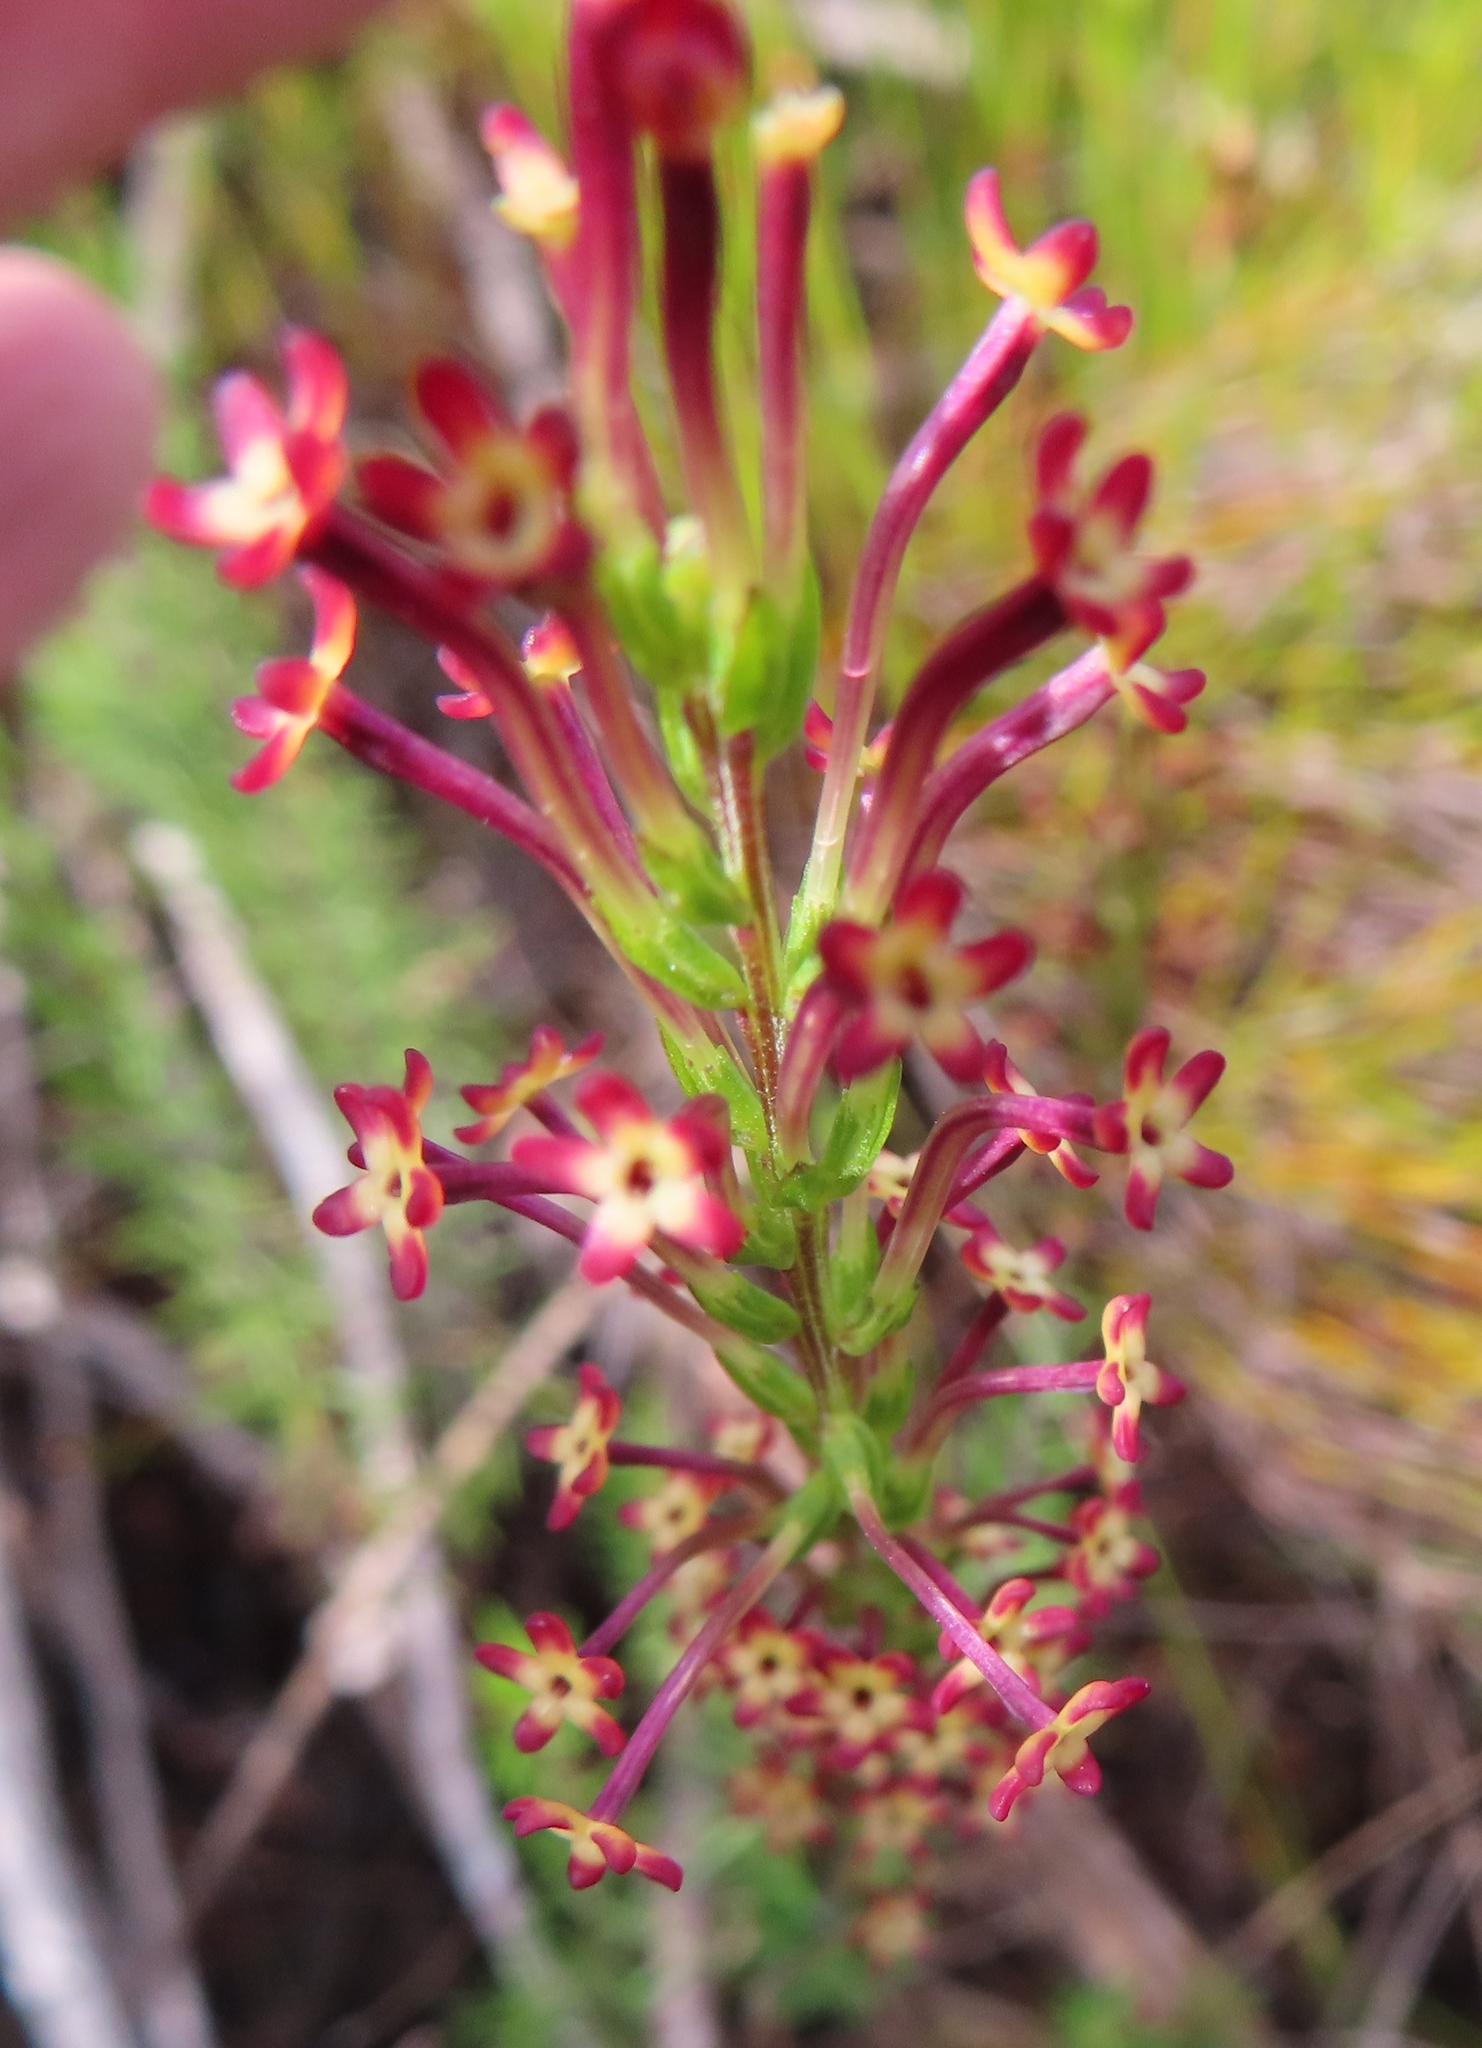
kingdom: Plantae
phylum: Tracheophyta
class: Magnoliopsida
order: Lamiales
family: Scrophulariaceae
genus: Microdon
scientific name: Microdon dubius
